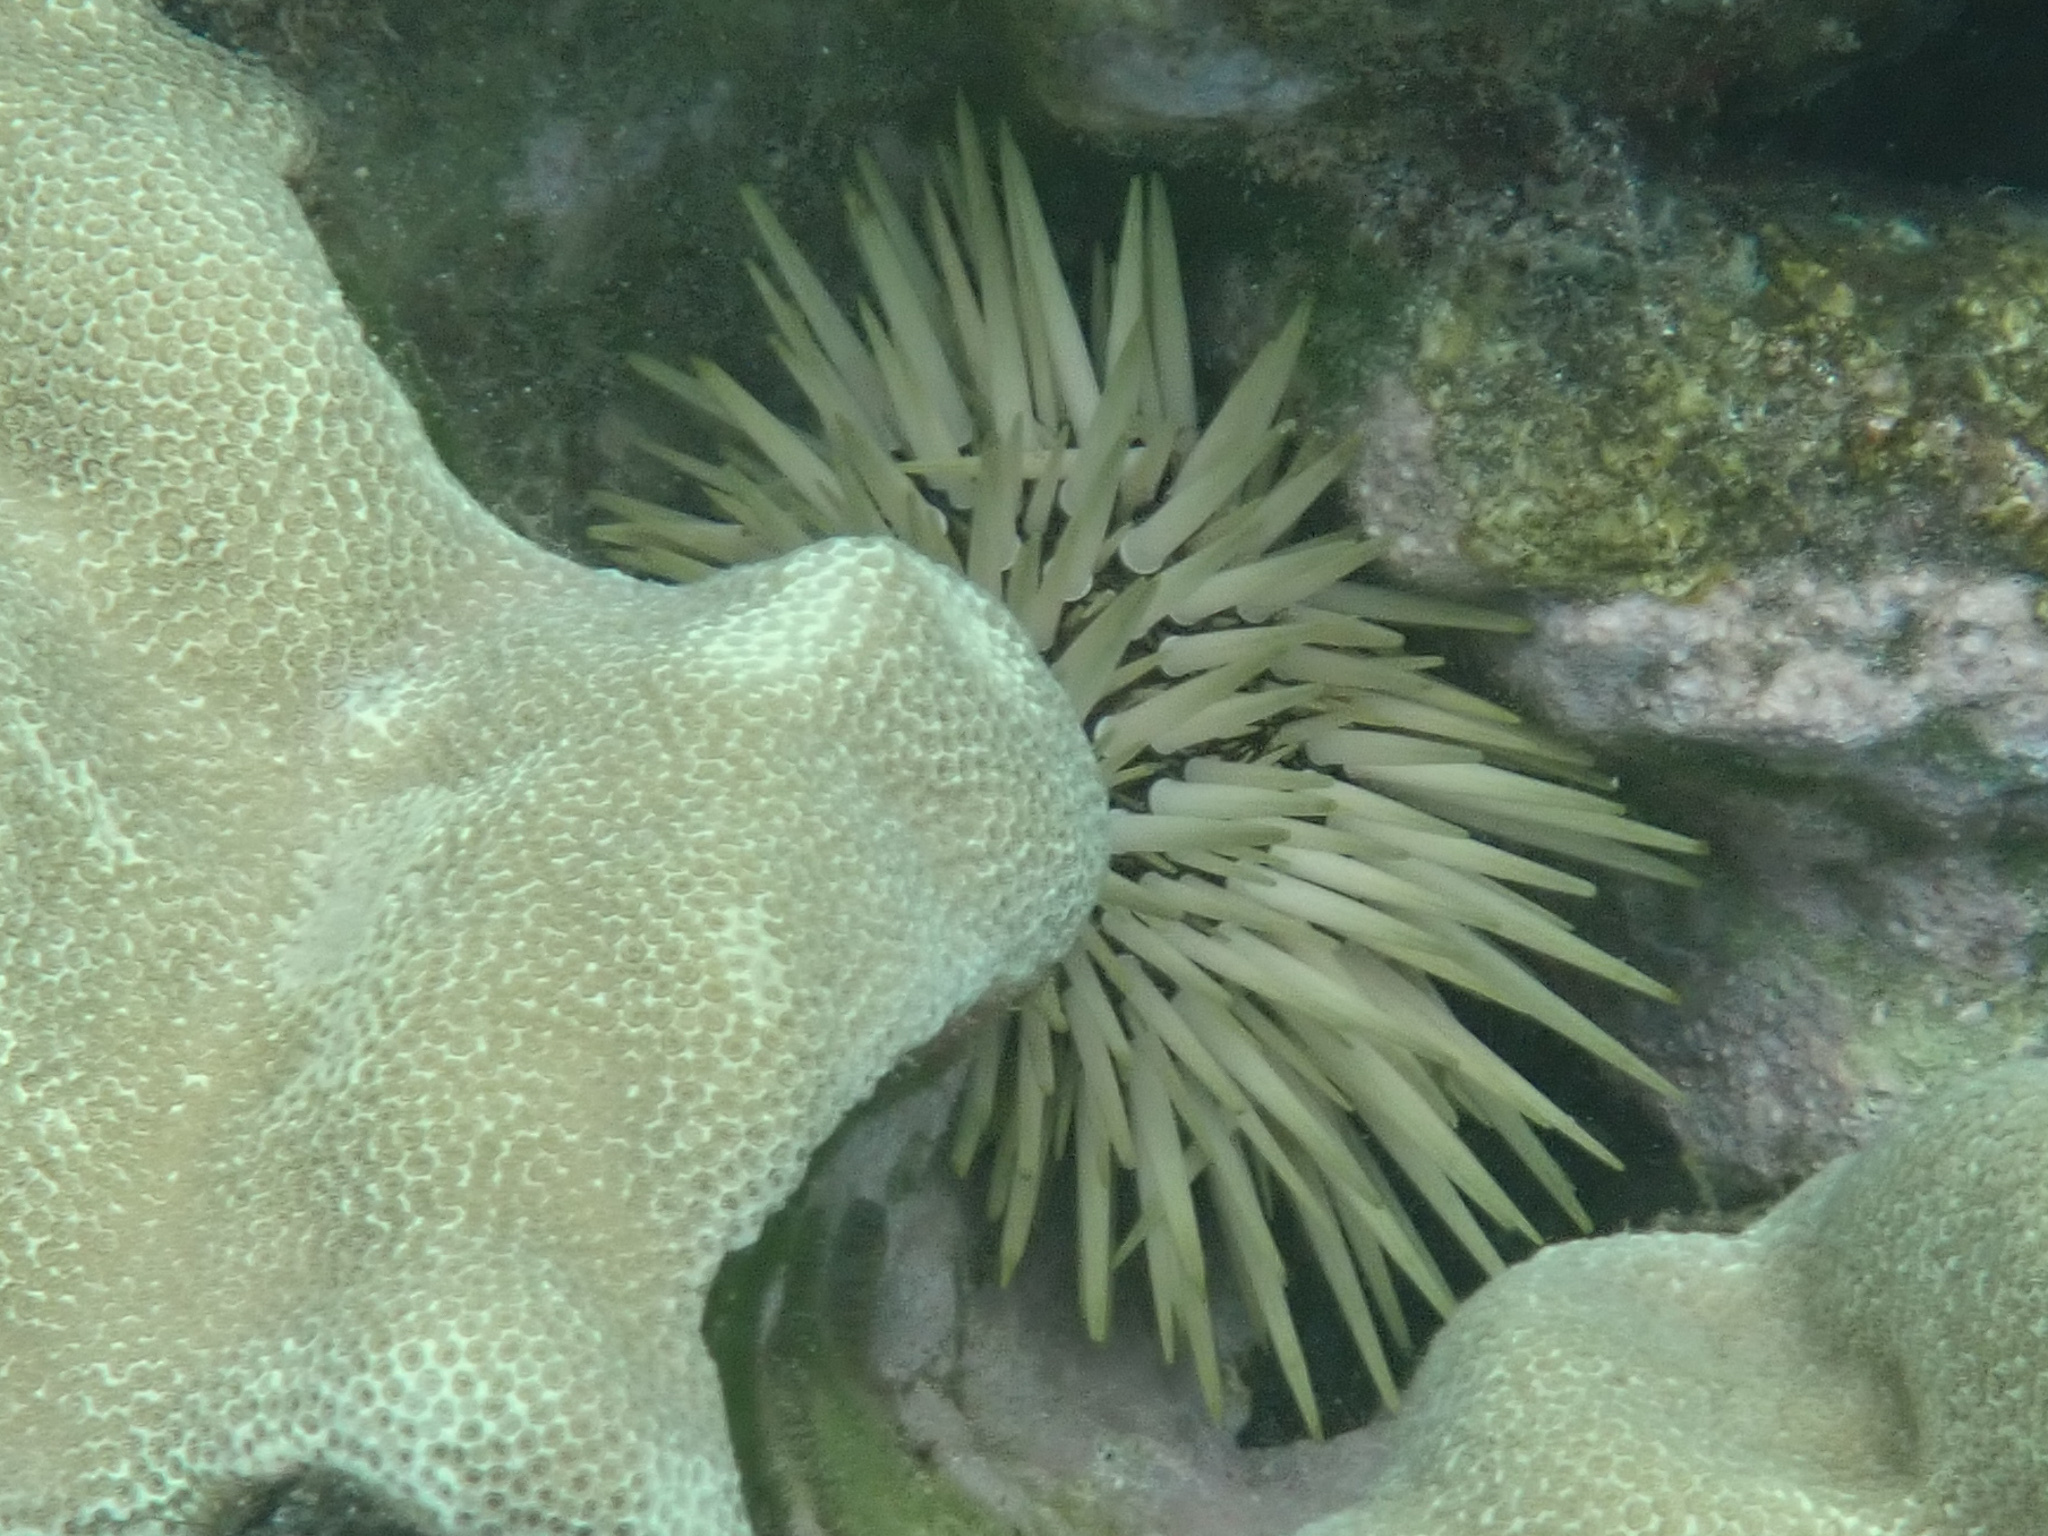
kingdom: Animalia
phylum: Echinodermata
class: Echinoidea
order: Camarodonta
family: Echinometridae
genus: Echinometra
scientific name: Echinometra mathaei
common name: Rock-boring urchin
